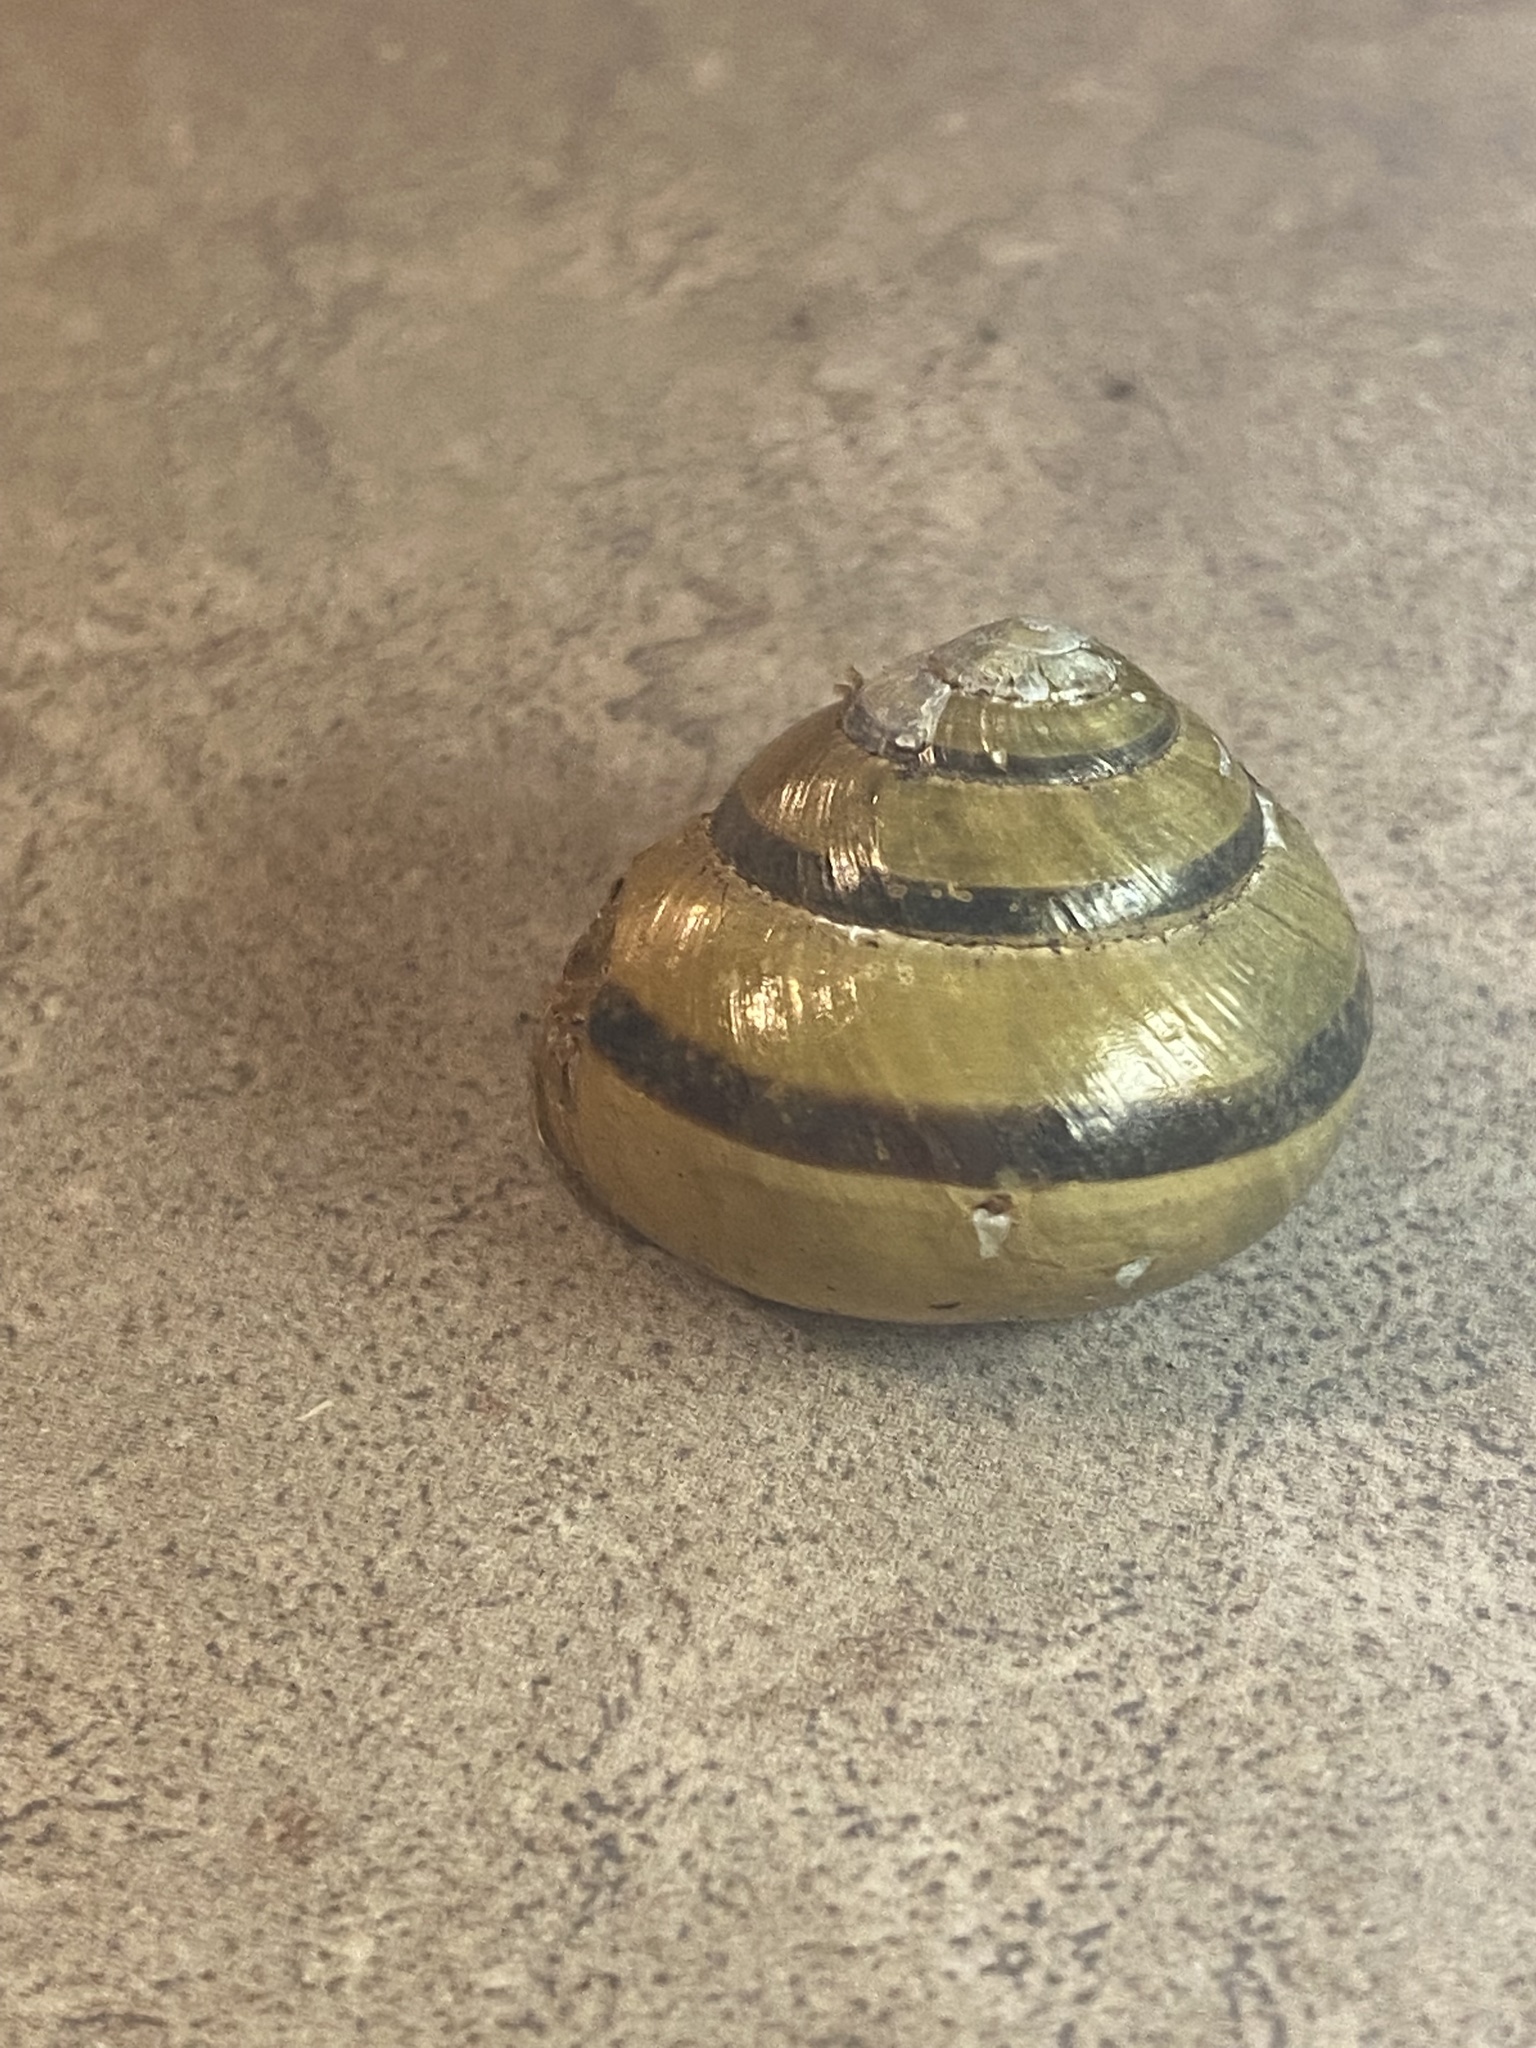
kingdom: Animalia
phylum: Mollusca
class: Gastropoda
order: Stylommatophora
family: Helicidae
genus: Cepaea
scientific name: Cepaea nemoralis
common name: Grovesnail
